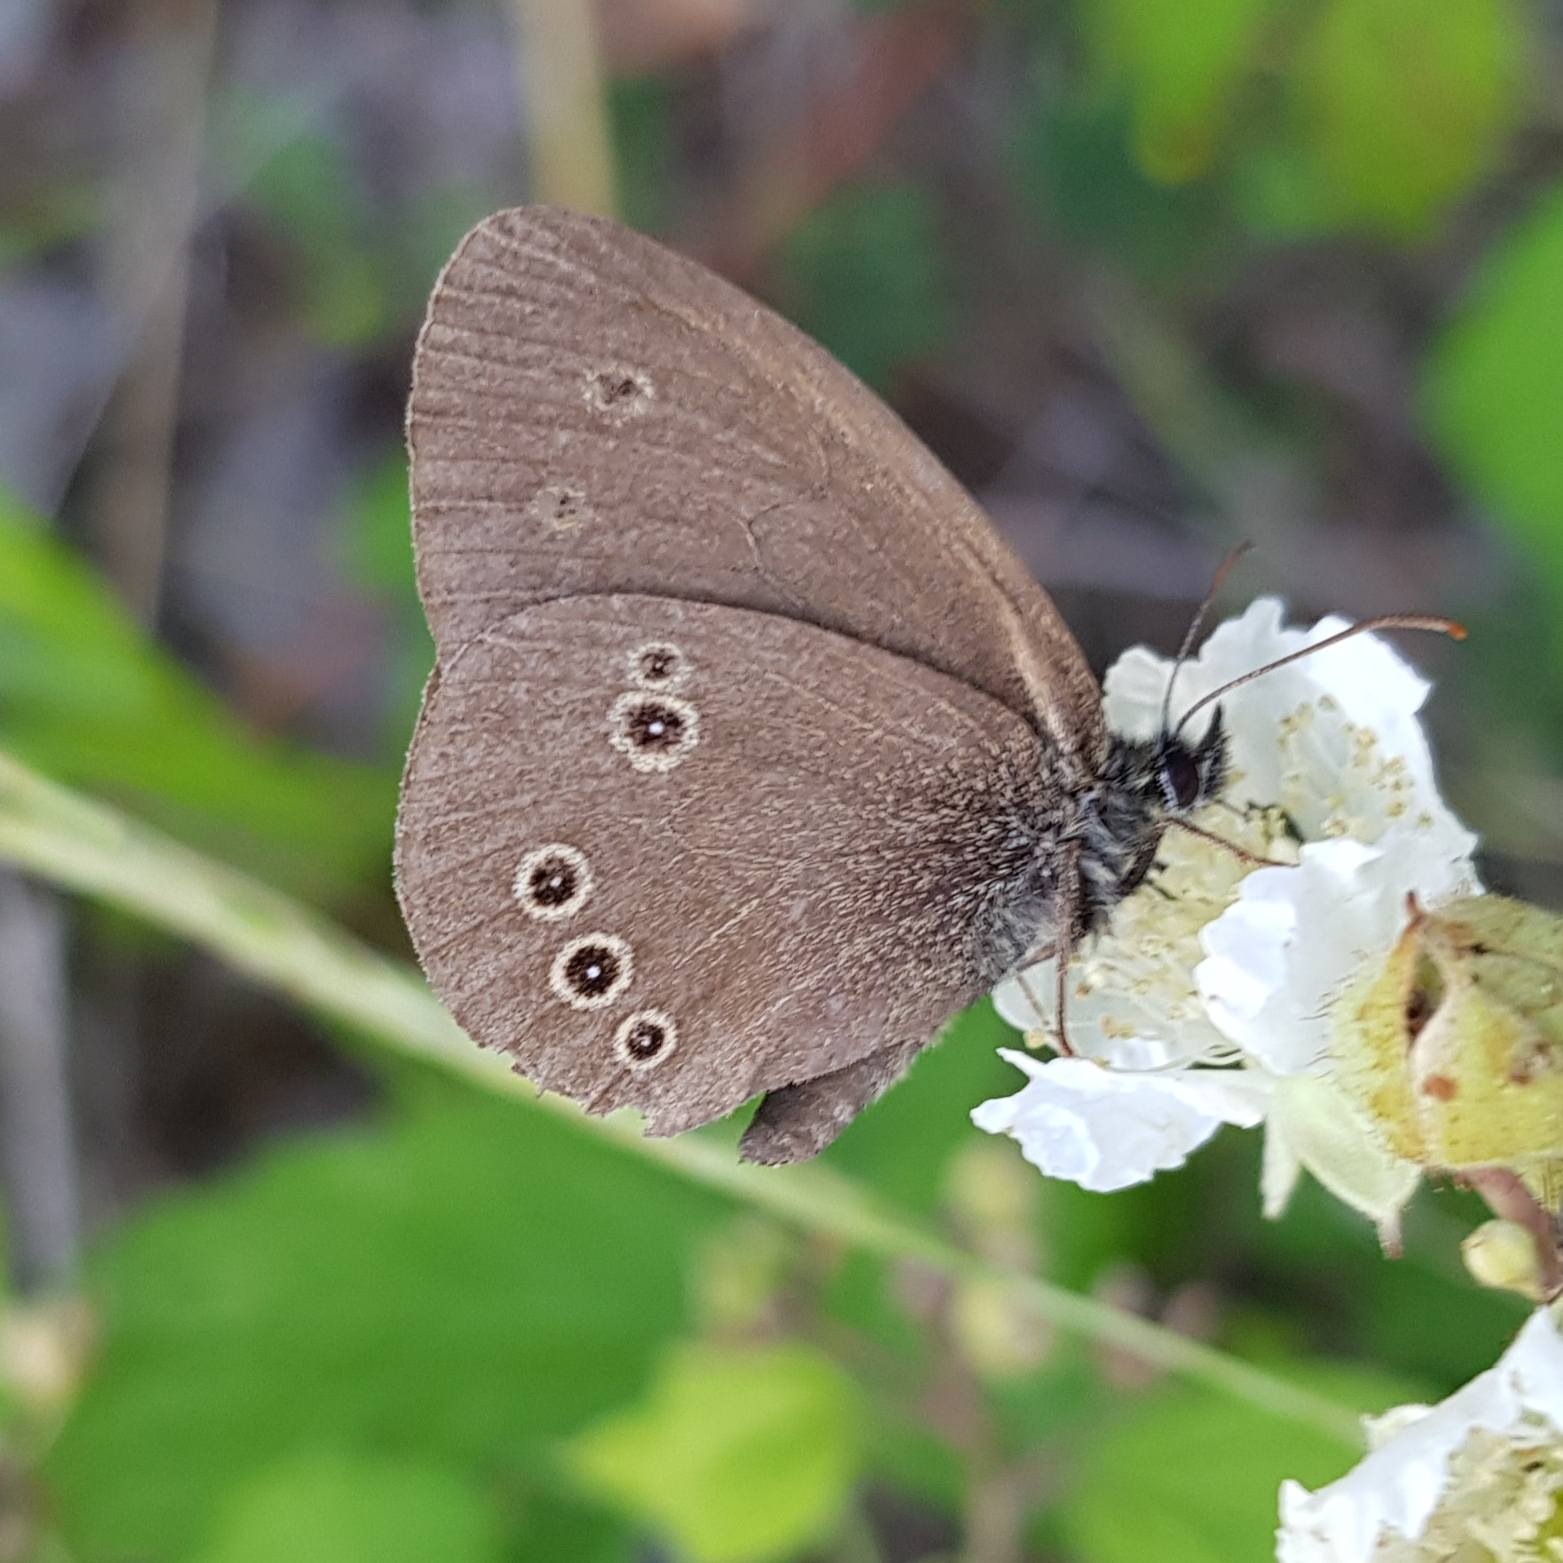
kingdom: Animalia
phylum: Arthropoda
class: Insecta
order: Lepidoptera
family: Nymphalidae
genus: Aphantopus
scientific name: Aphantopus hyperantus
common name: Ringlet
